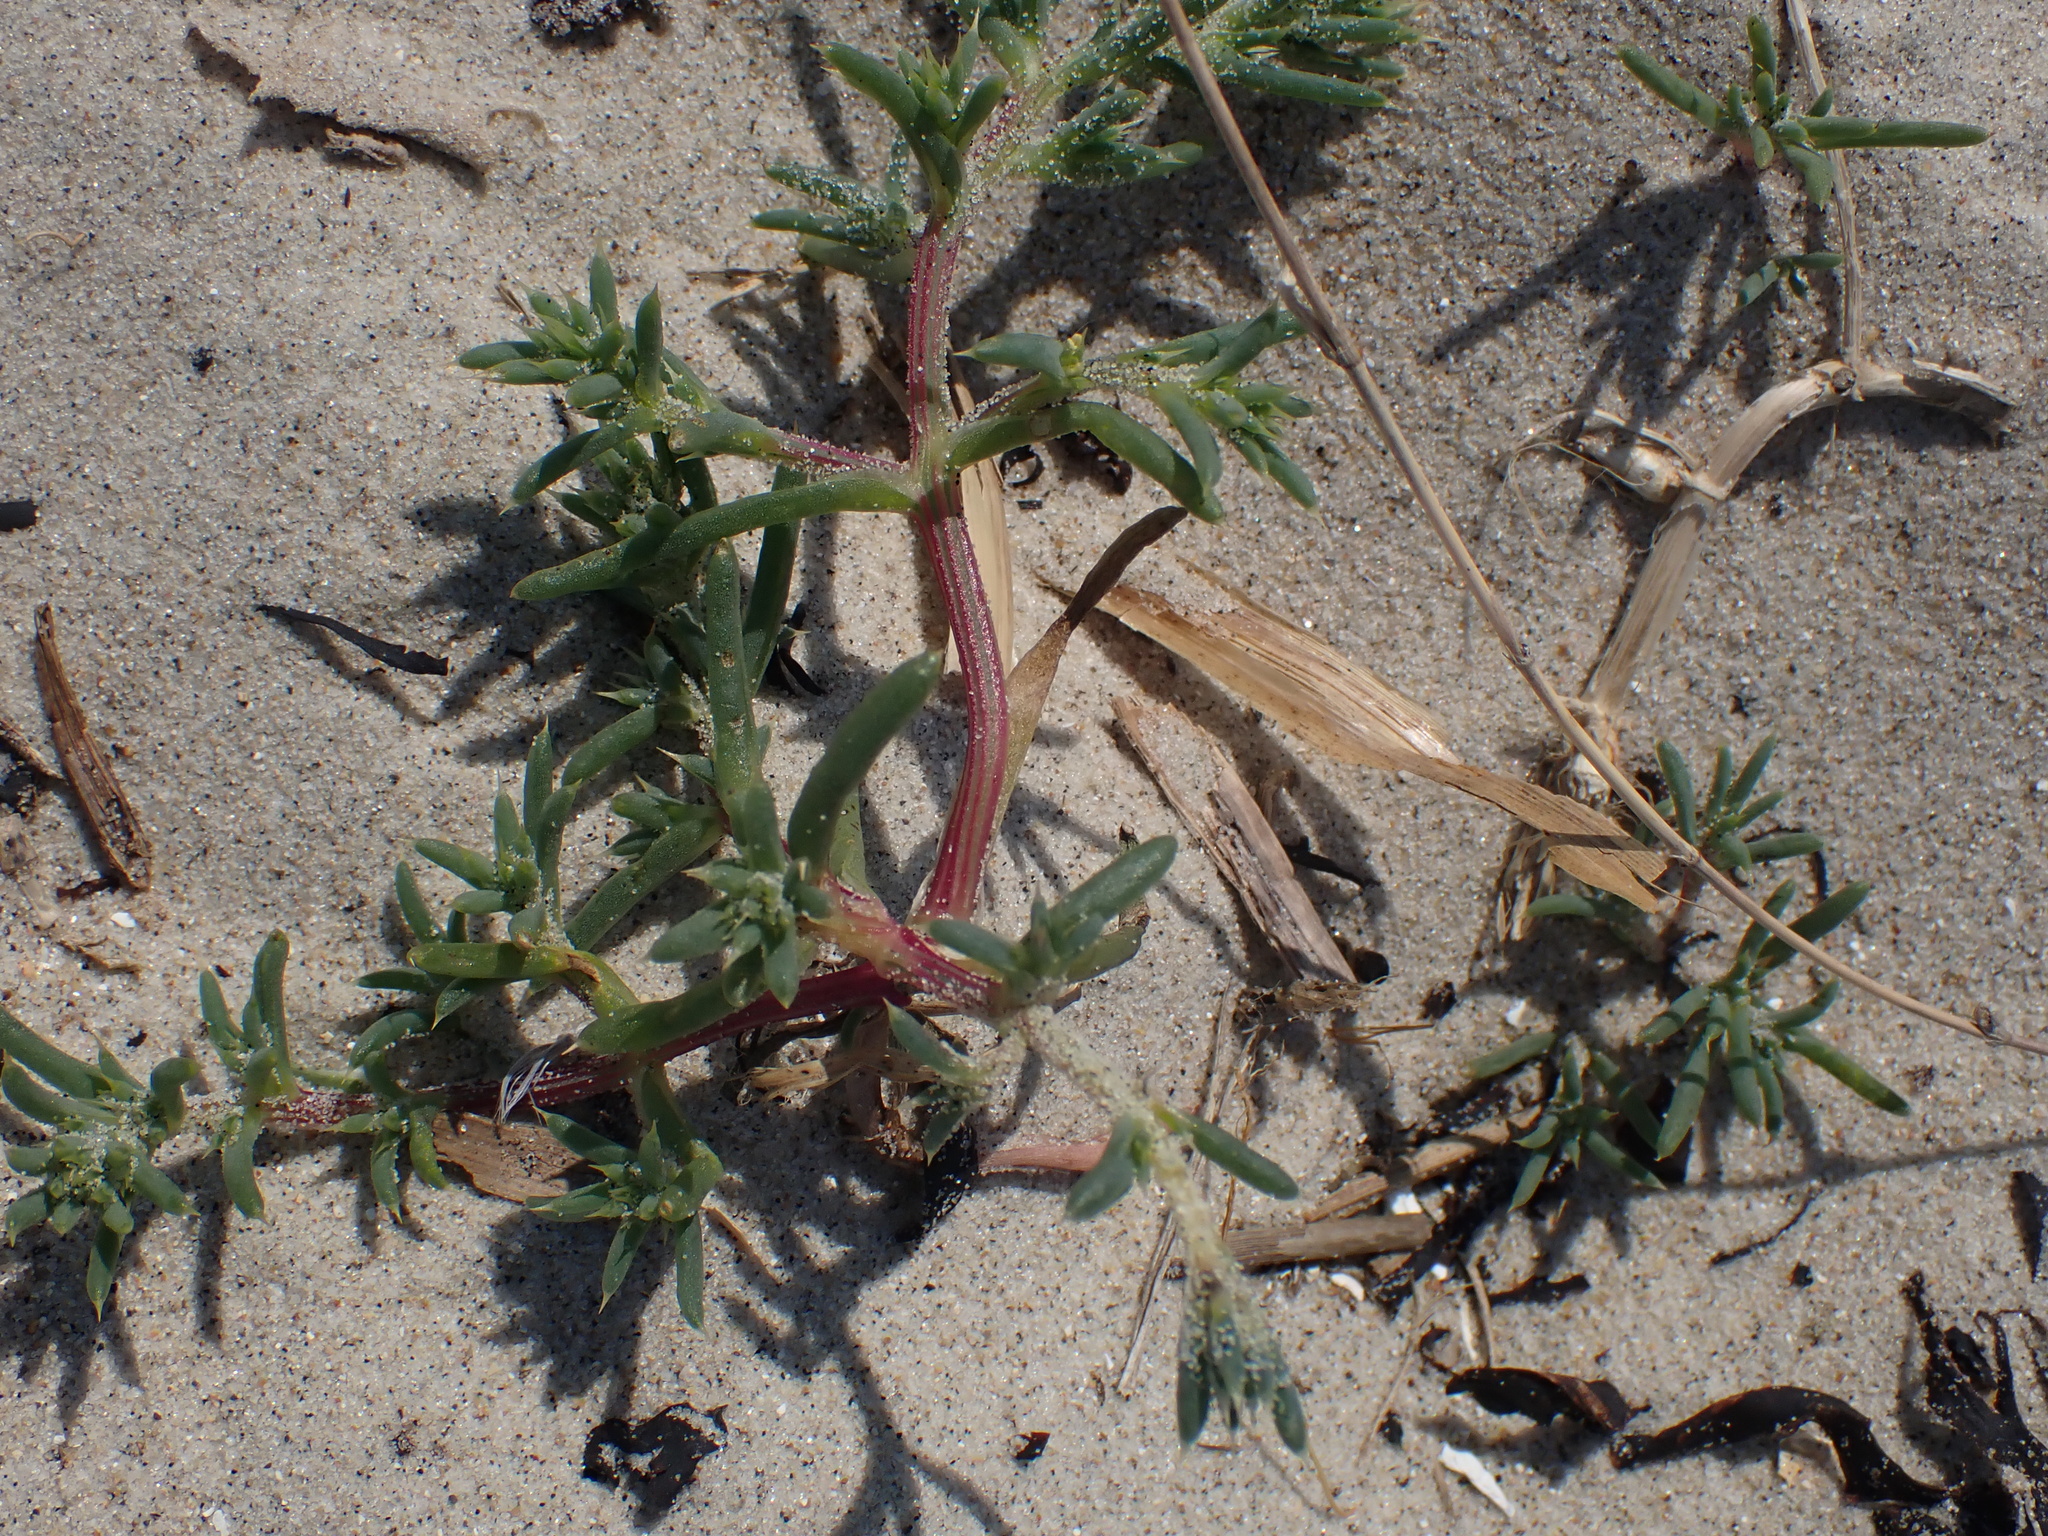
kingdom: Plantae
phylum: Tracheophyta
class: Magnoliopsida
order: Caryophyllales
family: Amaranthaceae
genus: Salsola
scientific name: Salsola kali
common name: Saltwort
